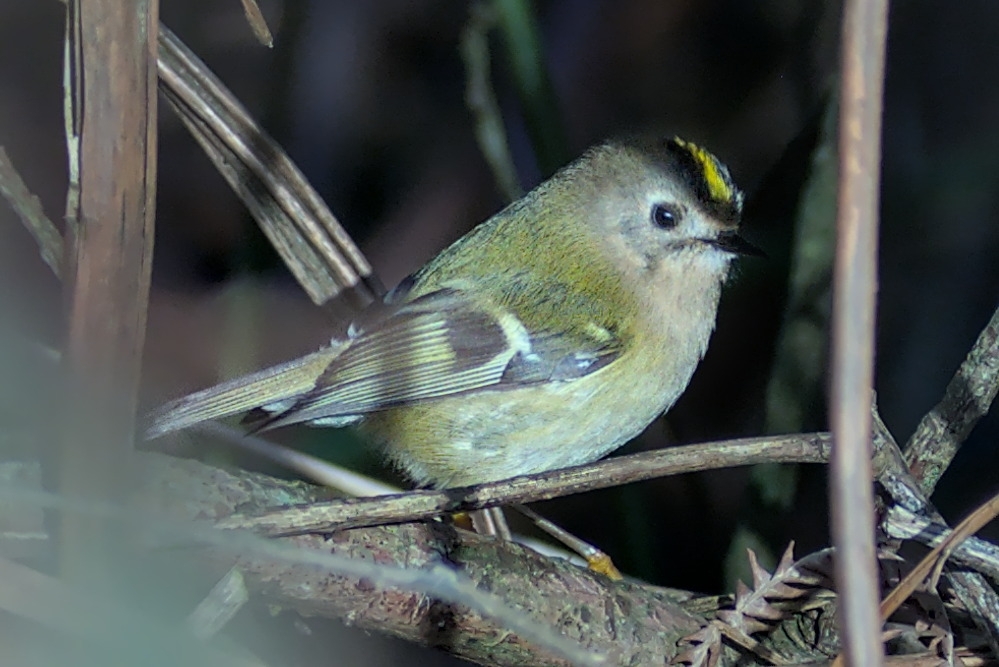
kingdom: Animalia
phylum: Chordata
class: Aves
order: Passeriformes
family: Regulidae
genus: Regulus
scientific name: Regulus regulus
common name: Goldcrest
